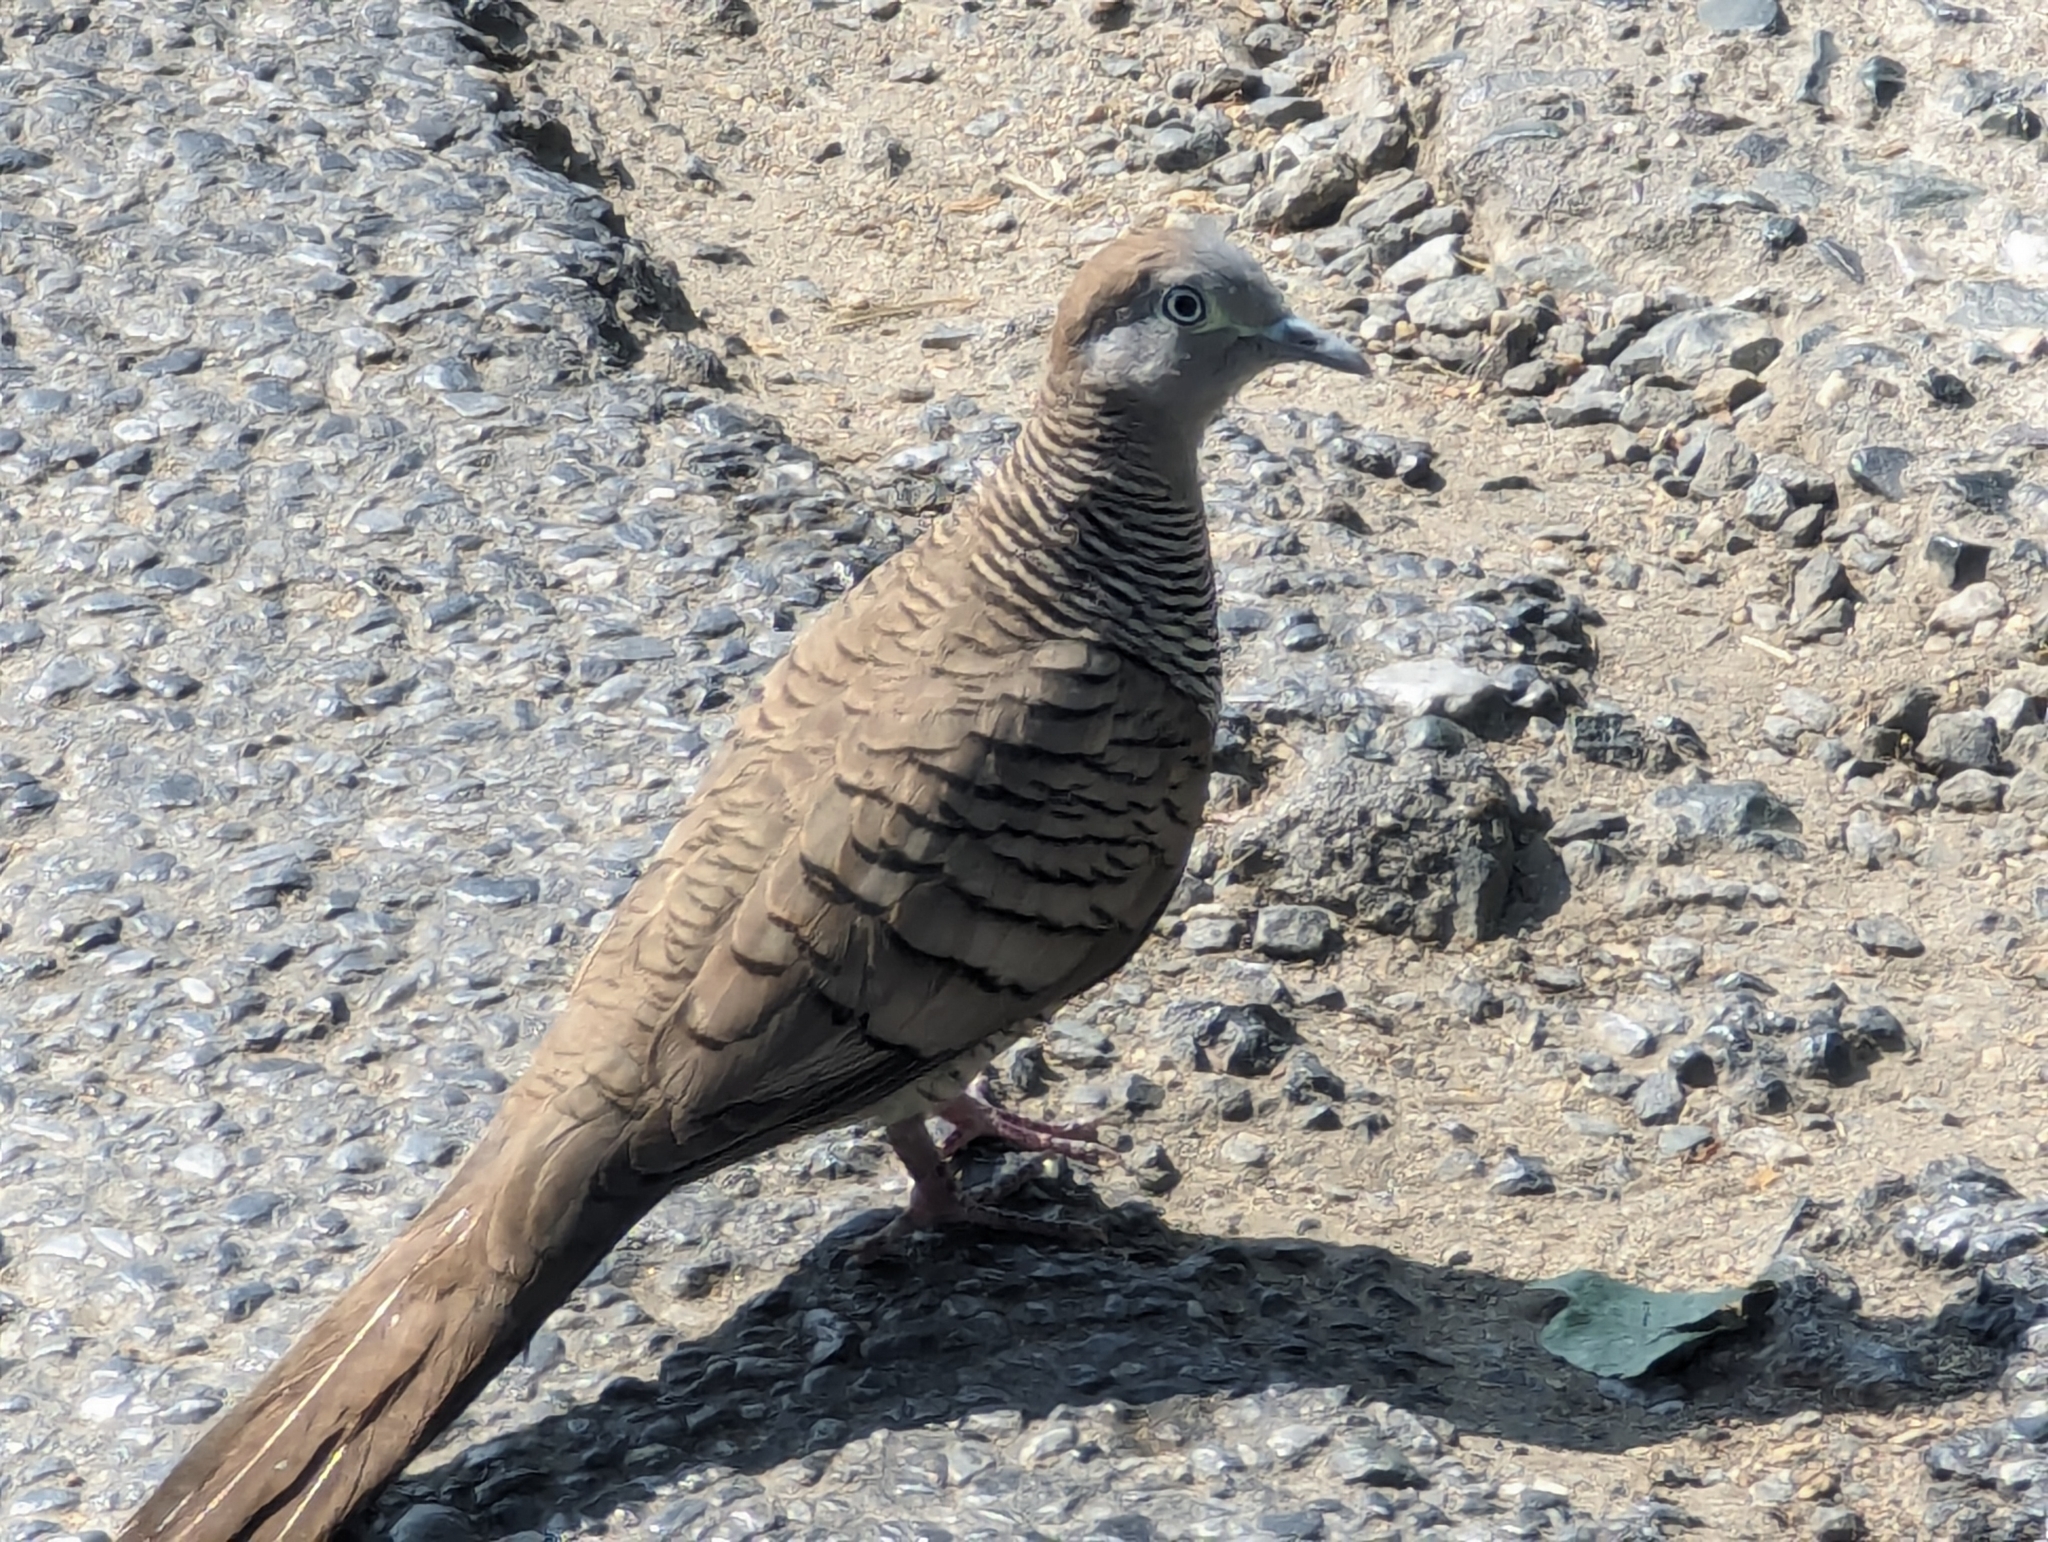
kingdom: Animalia
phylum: Chordata
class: Aves
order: Columbiformes
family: Columbidae
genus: Geopelia
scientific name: Geopelia striata
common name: Zebra dove
